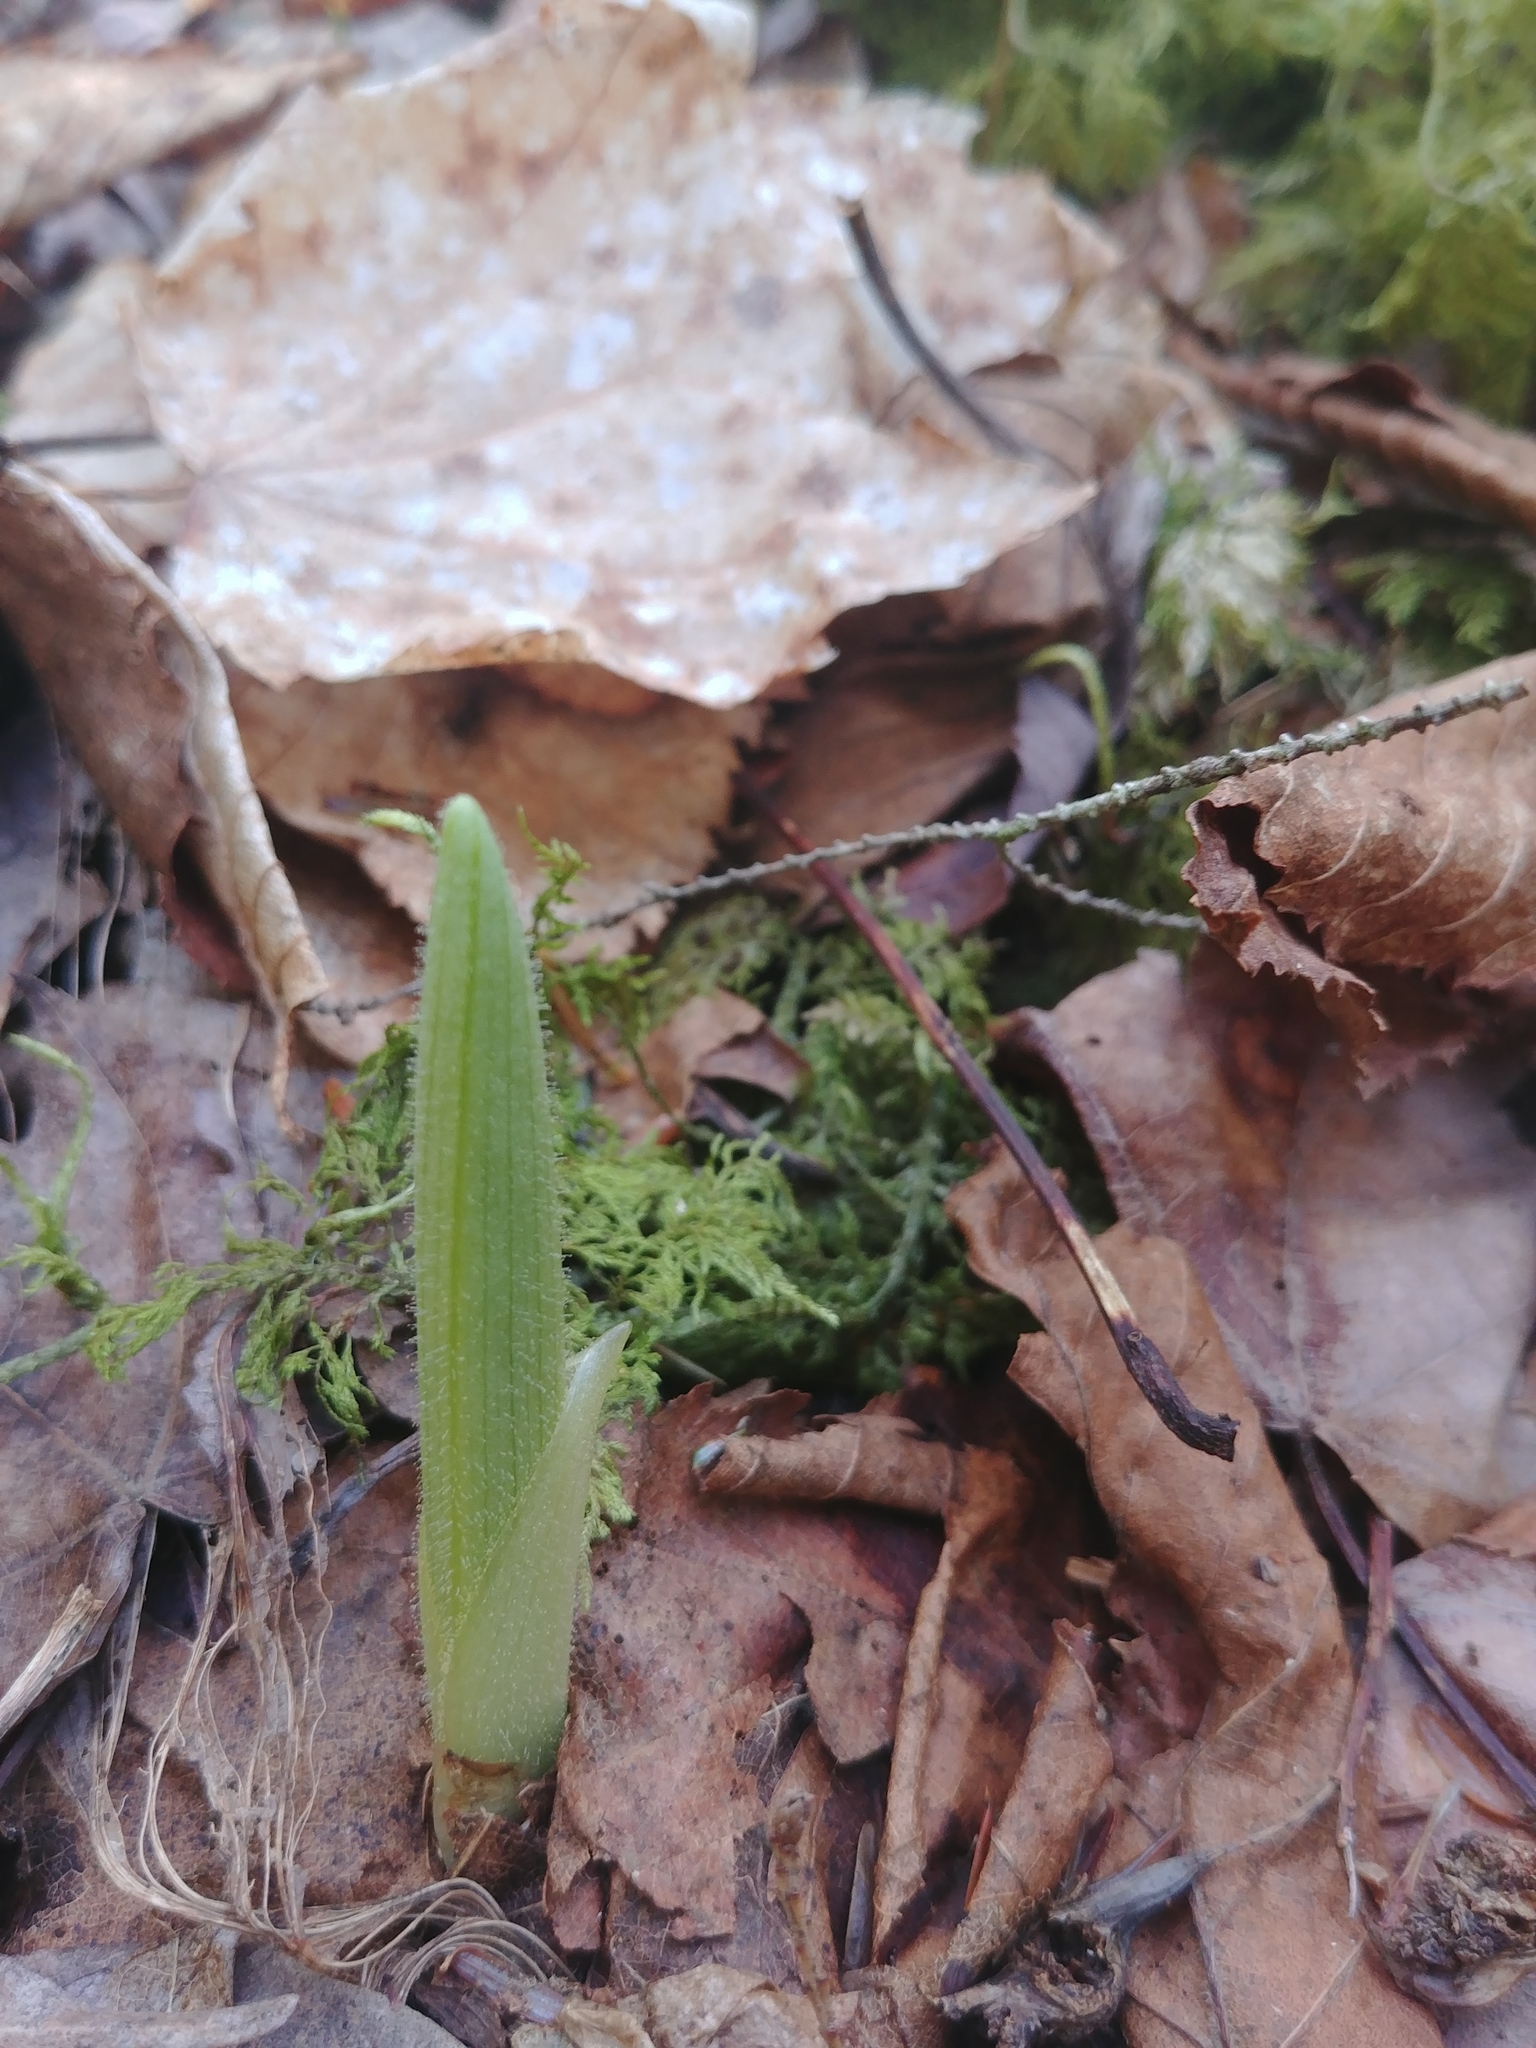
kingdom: Plantae
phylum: Tracheophyta
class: Liliopsida
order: Asparagales
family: Orchidaceae
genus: Cypripedium
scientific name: Cypripedium acaule
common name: Pink lady's-slipper
